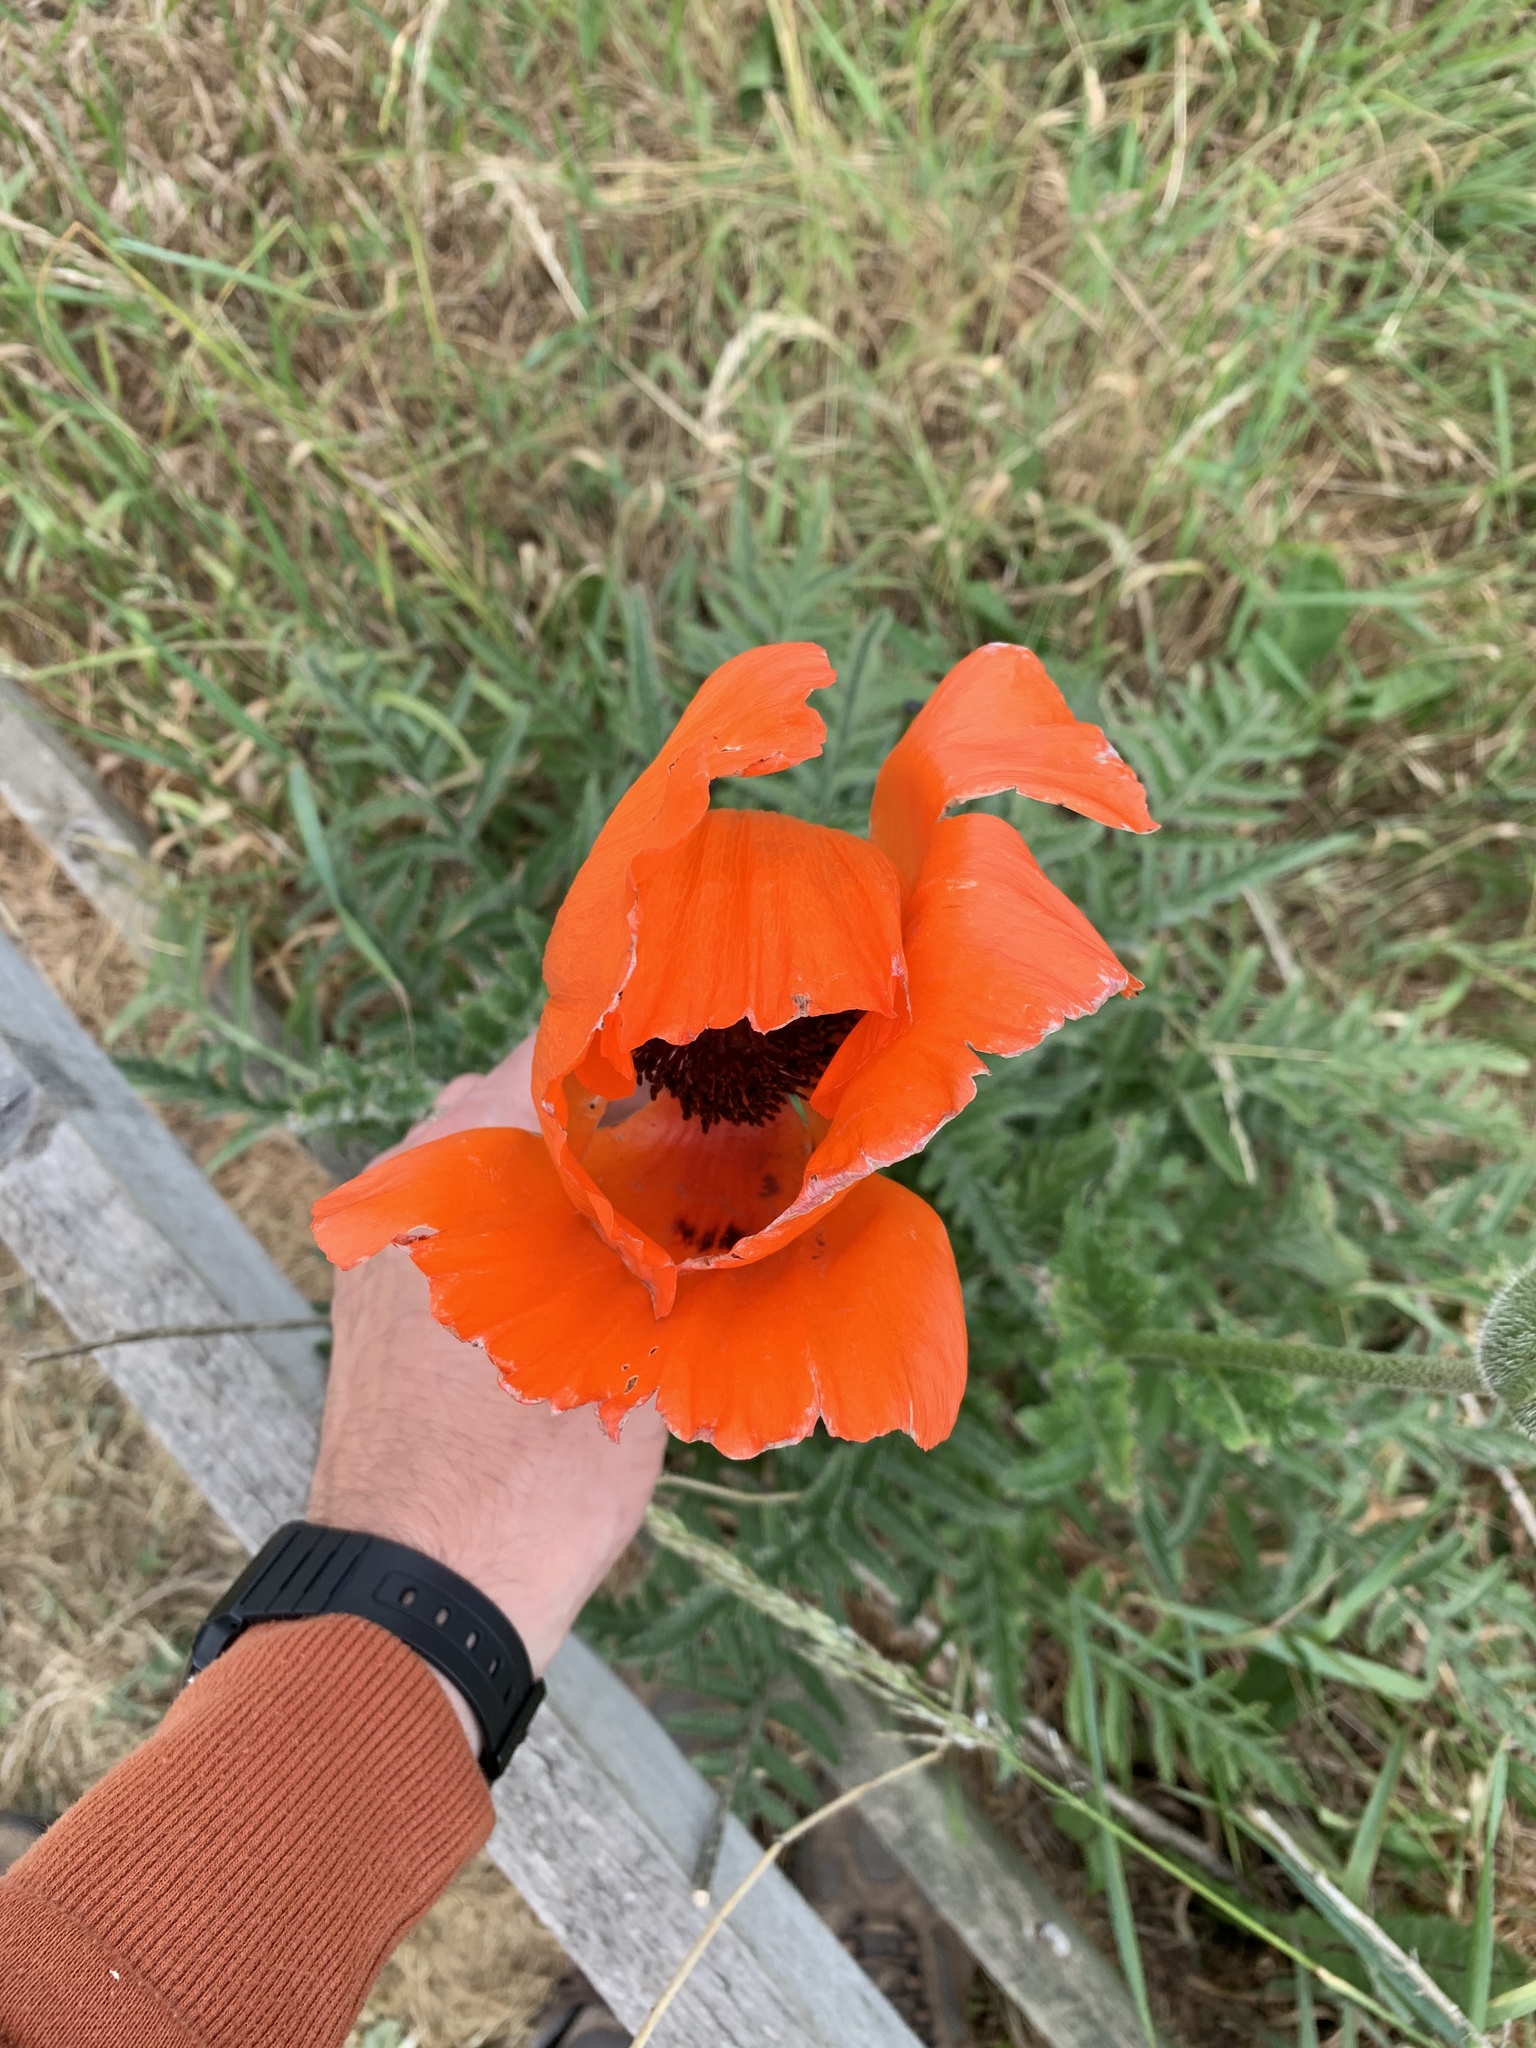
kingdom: Plantae
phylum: Tracheophyta
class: Magnoliopsida
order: Ranunculales
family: Papaveraceae
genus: Papaver
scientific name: Papaver orientale
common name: Oriental poppy
